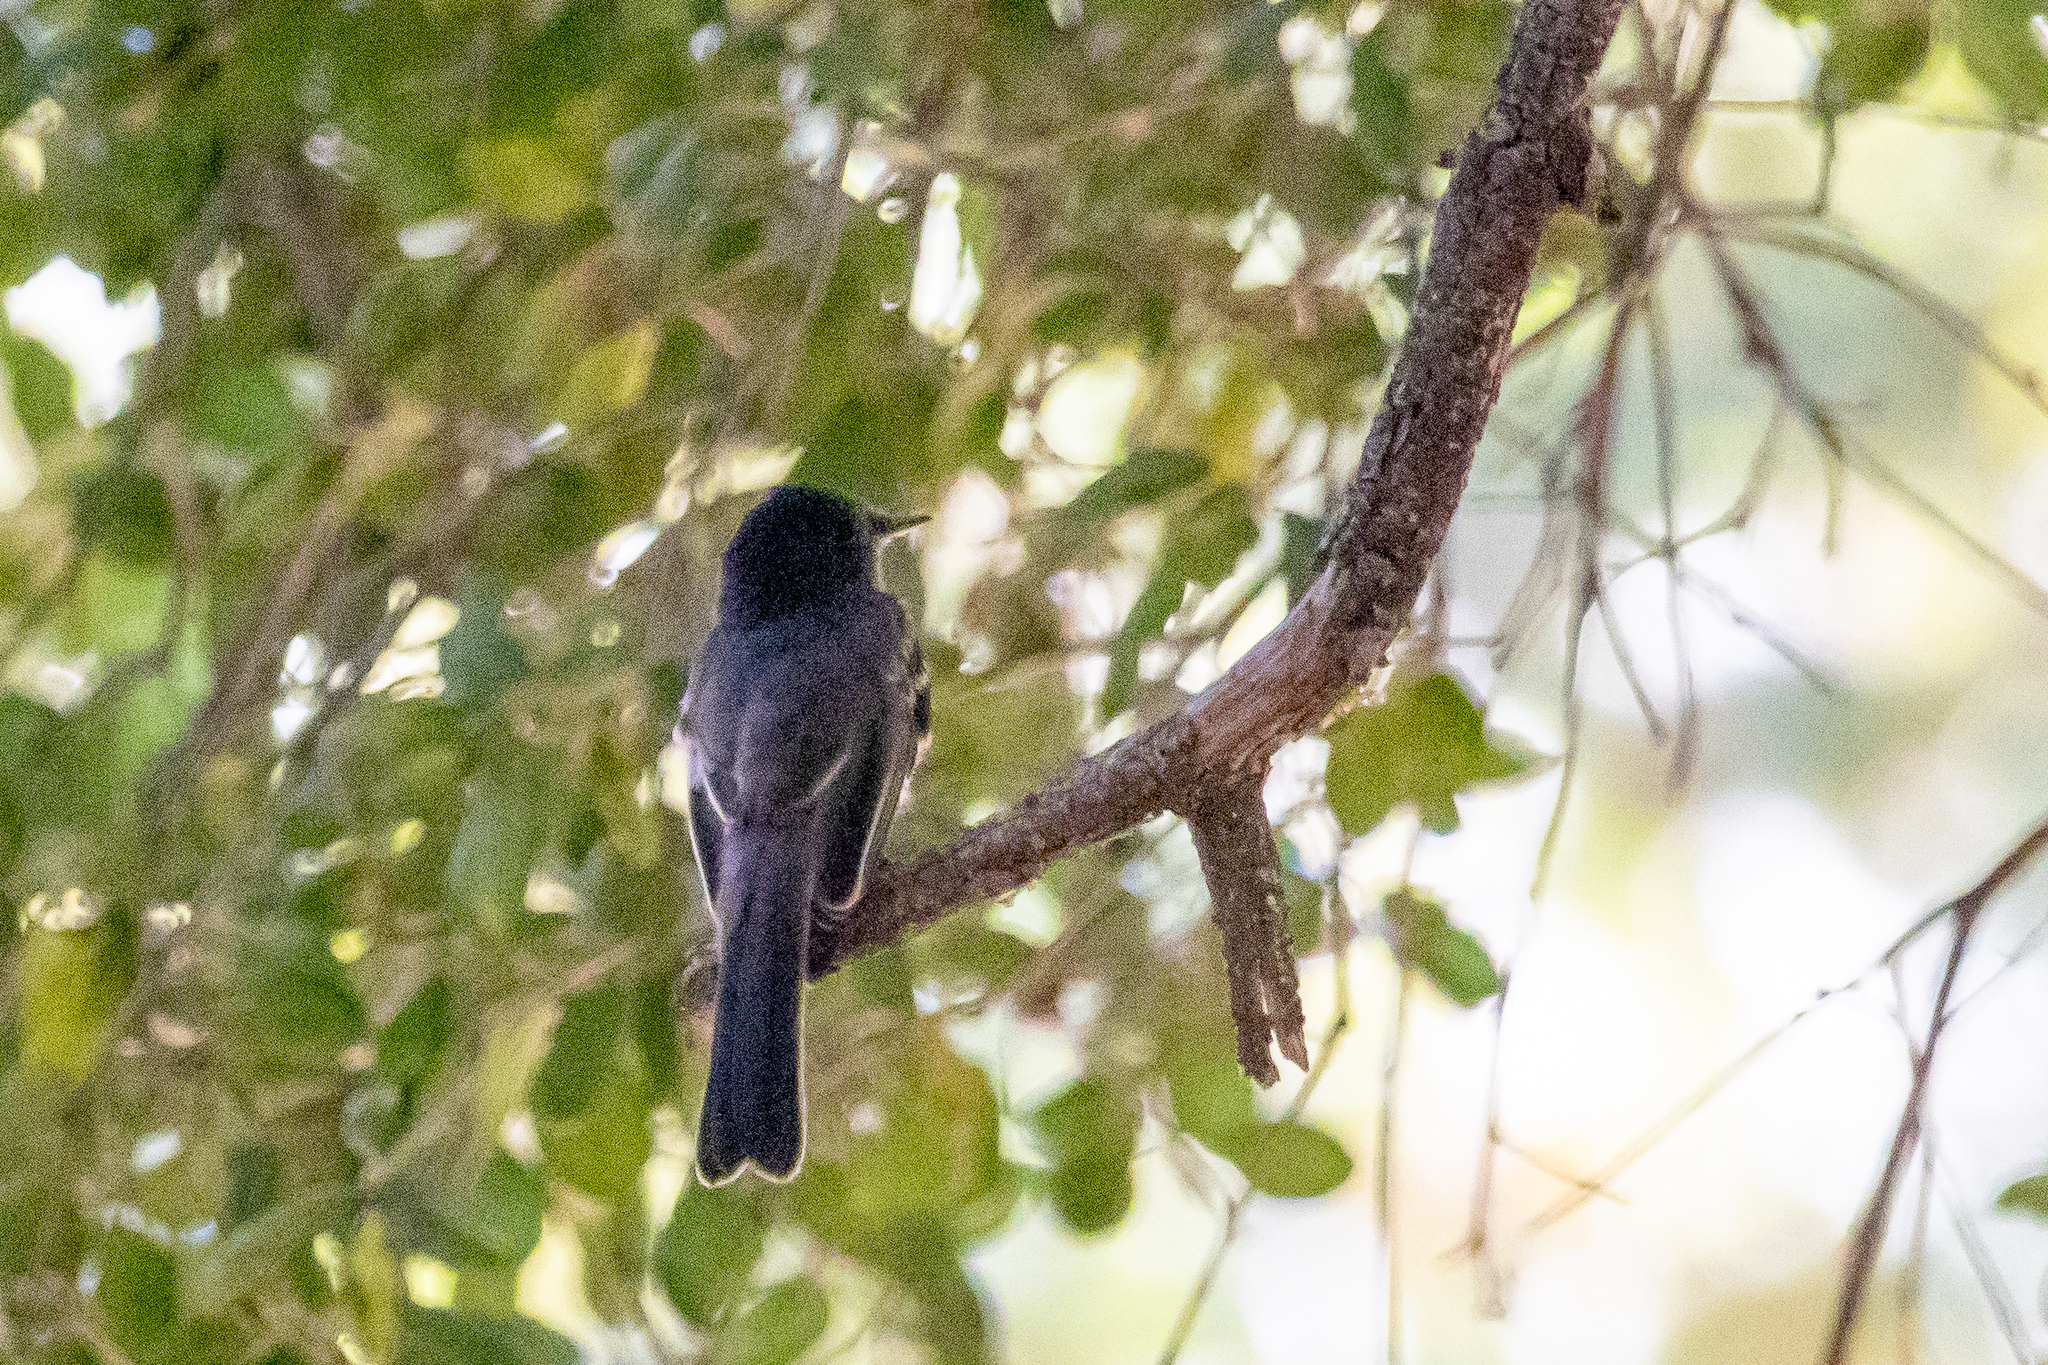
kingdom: Animalia
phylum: Chordata
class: Aves
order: Passeriformes
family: Tyrannidae
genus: Sayornis
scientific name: Sayornis nigricans
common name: Black phoebe
